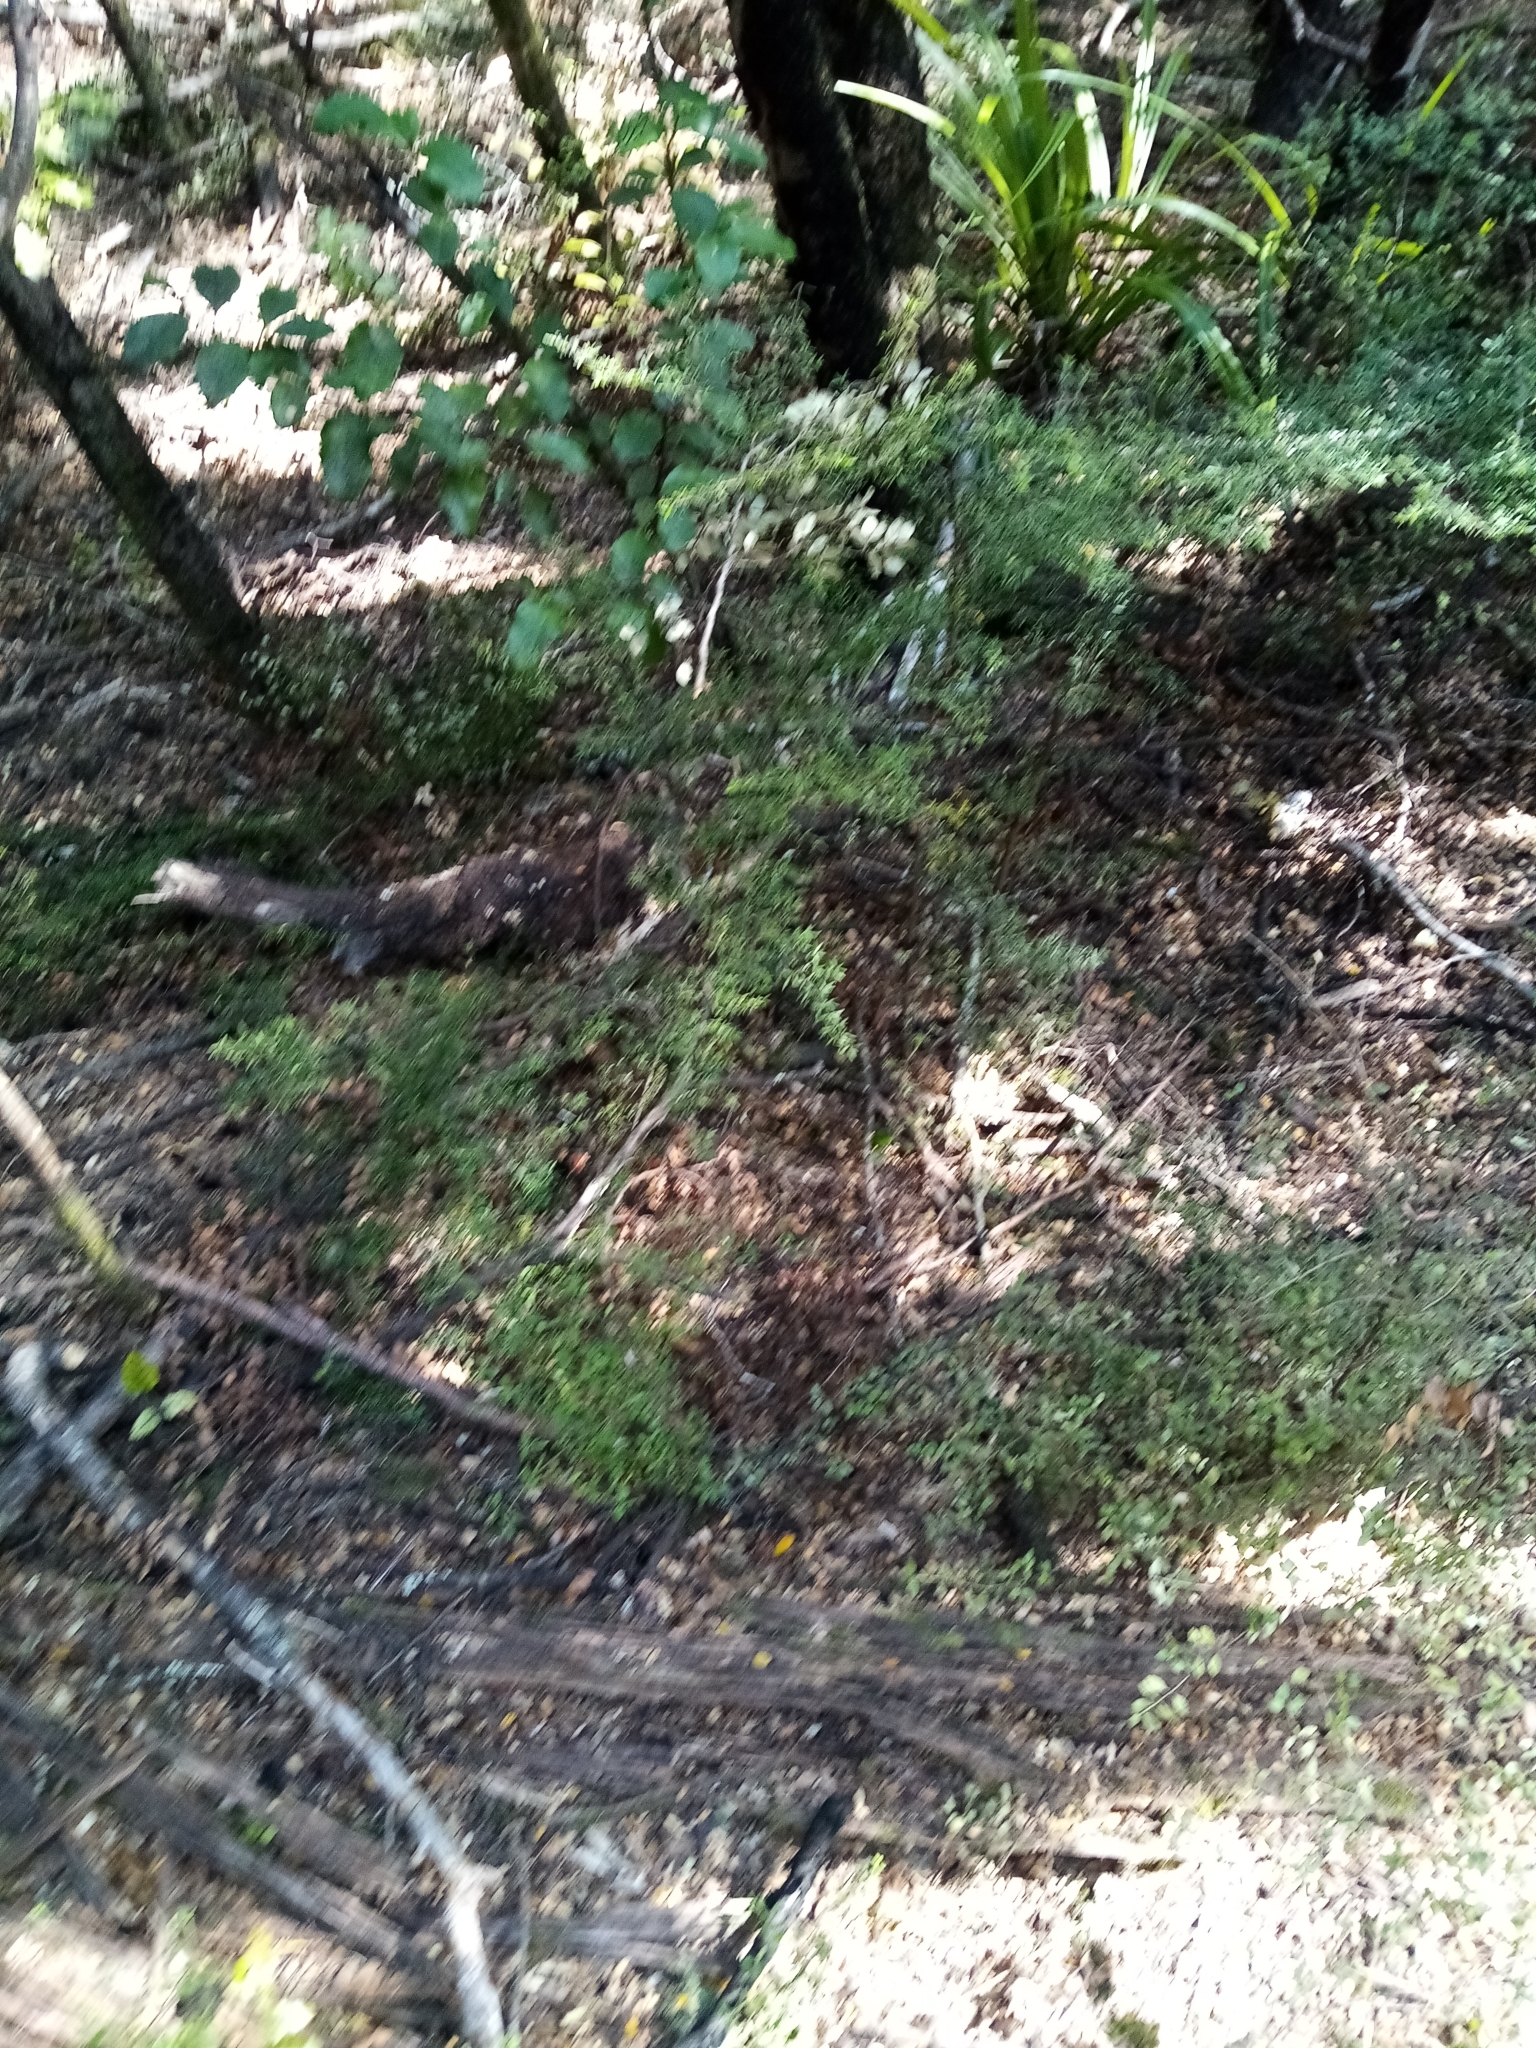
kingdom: Plantae
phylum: Tracheophyta
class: Magnoliopsida
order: Gentianales
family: Rubiaceae
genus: Coprosma
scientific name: Coprosma linariifolia
